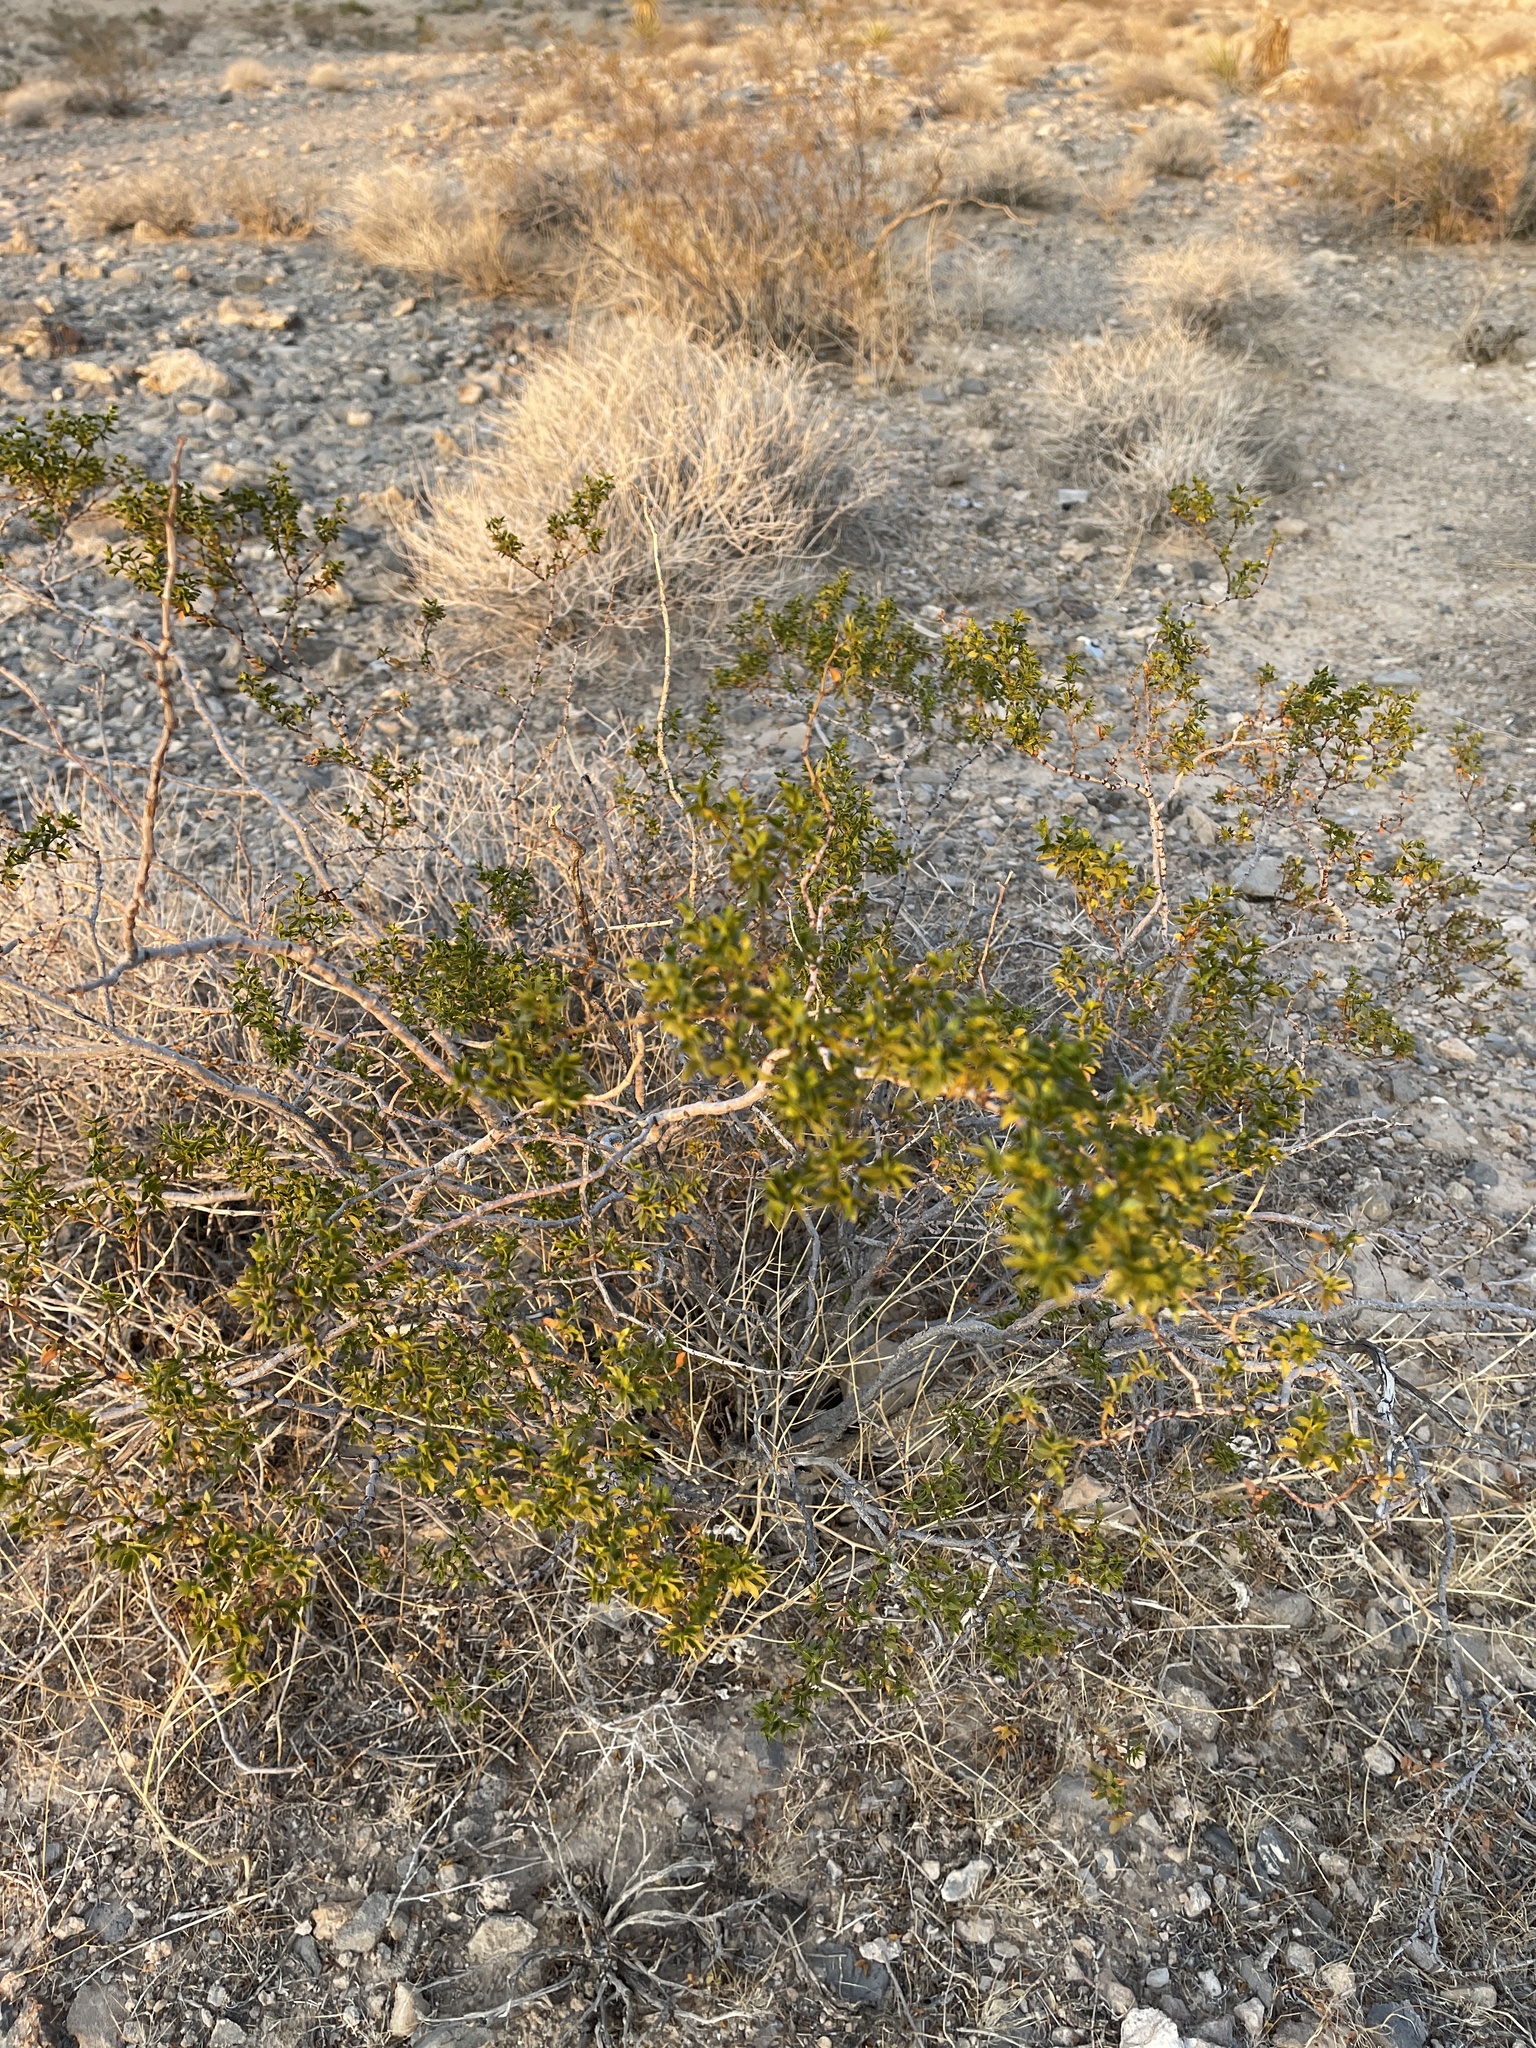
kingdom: Plantae
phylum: Tracheophyta
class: Magnoliopsida
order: Zygophyllales
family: Zygophyllaceae
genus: Larrea
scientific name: Larrea tridentata
